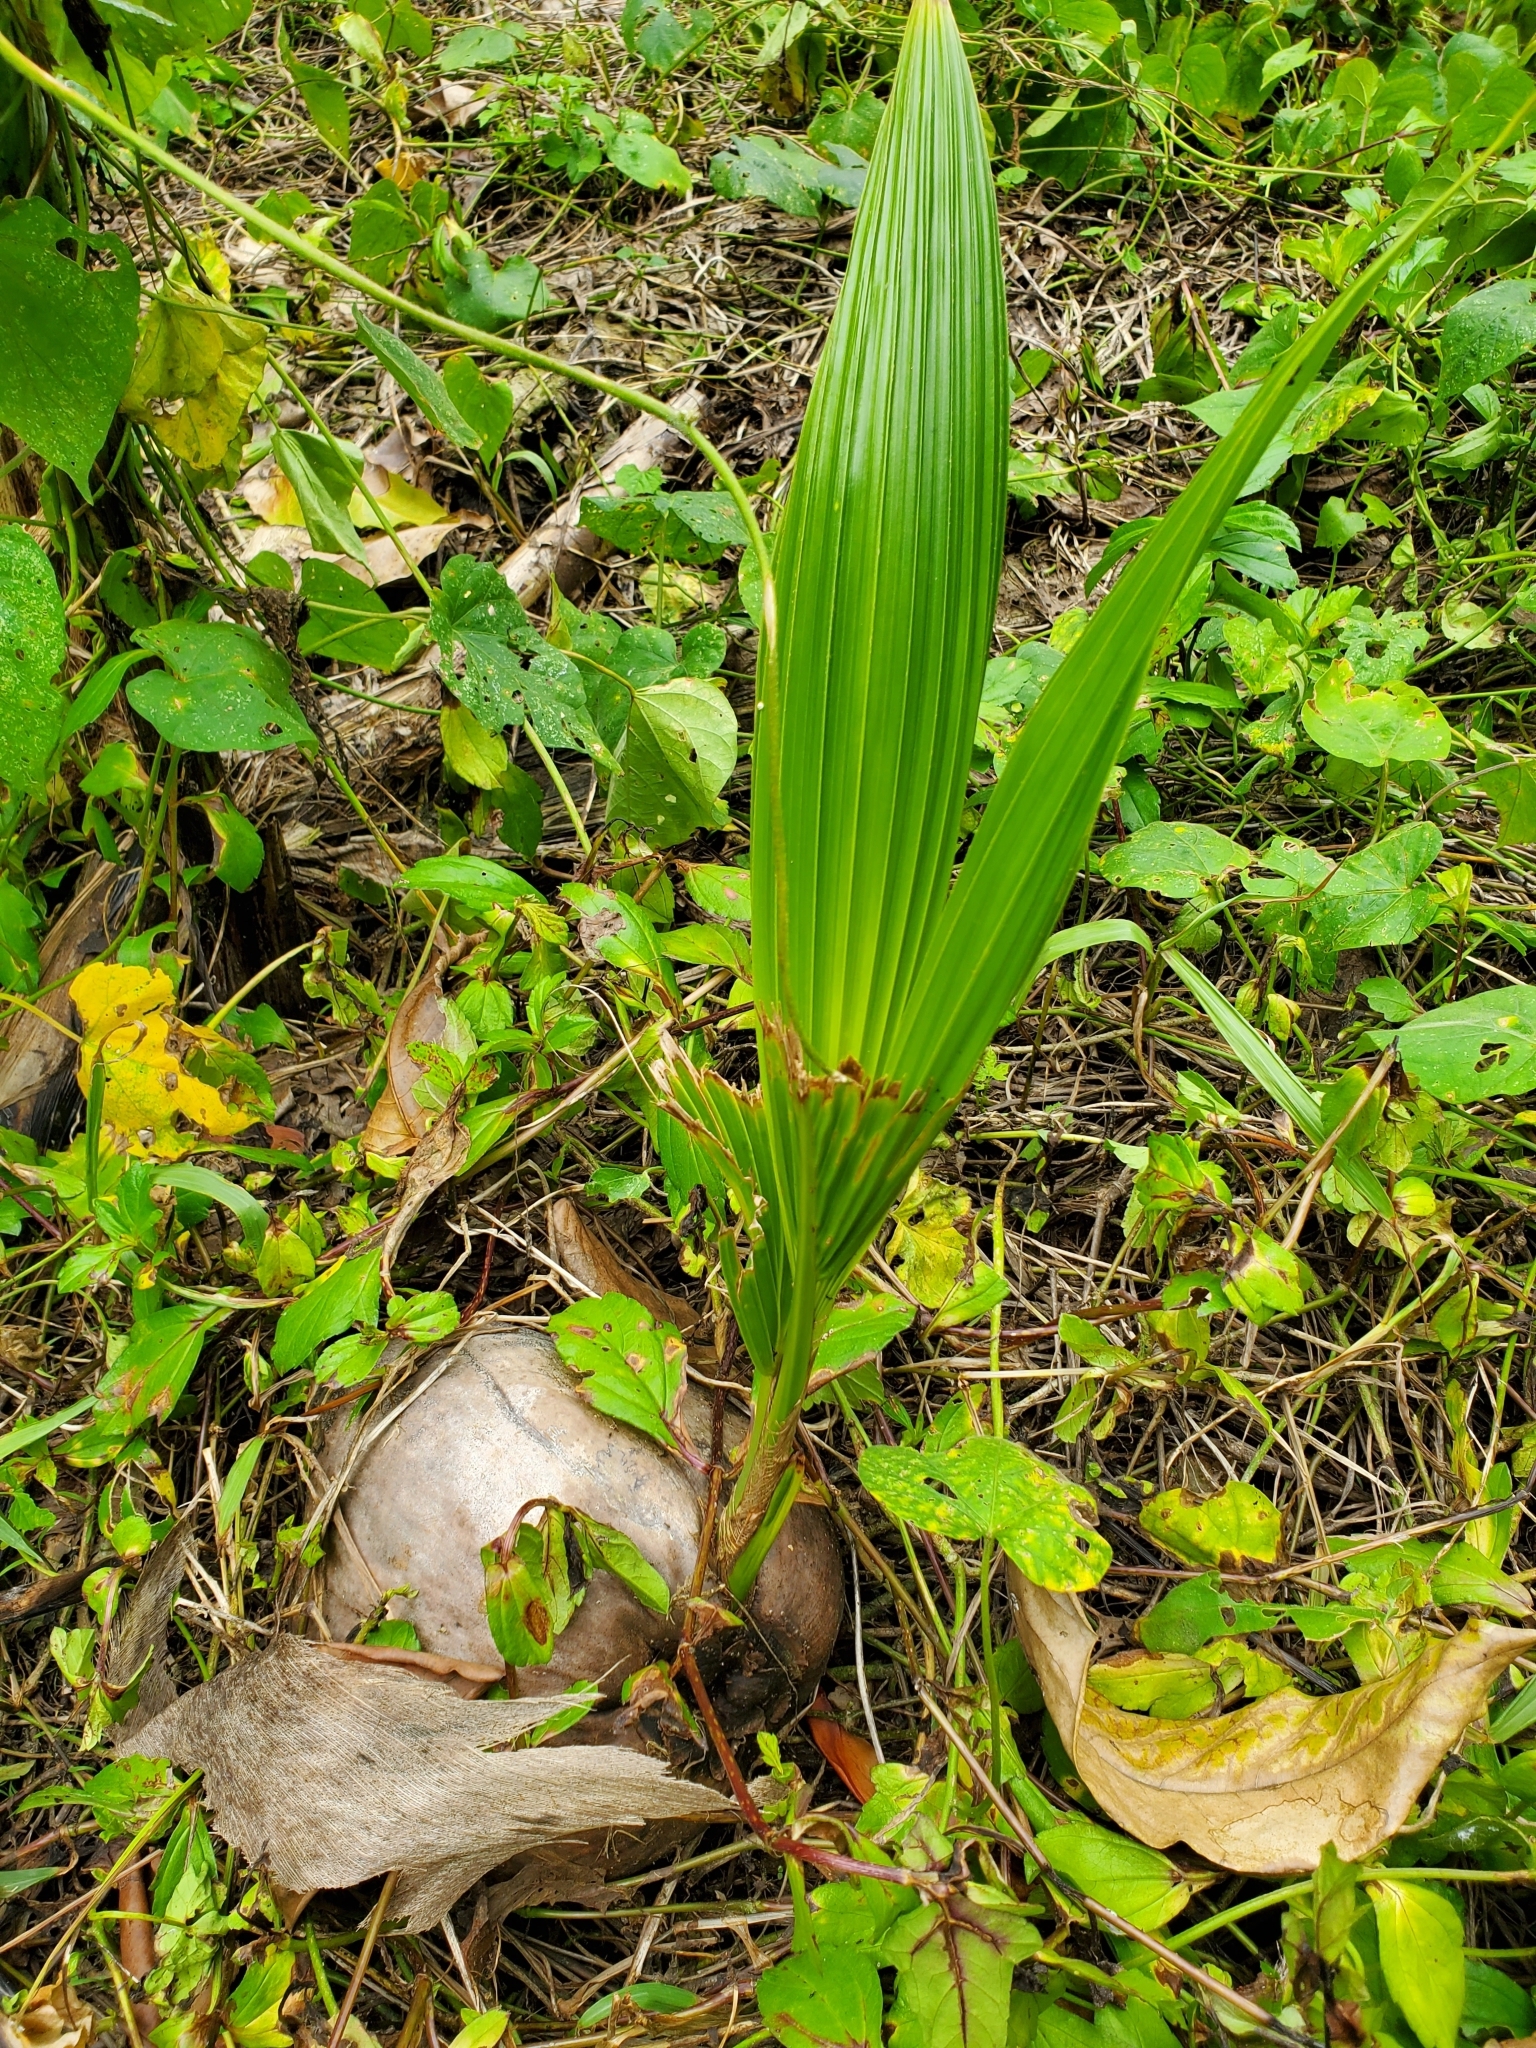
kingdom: Plantae
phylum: Tracheophyta
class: Liliopsida
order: Arecales
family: Arecaceae
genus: Cocos
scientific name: Cocos nucifera
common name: Coconut palm
